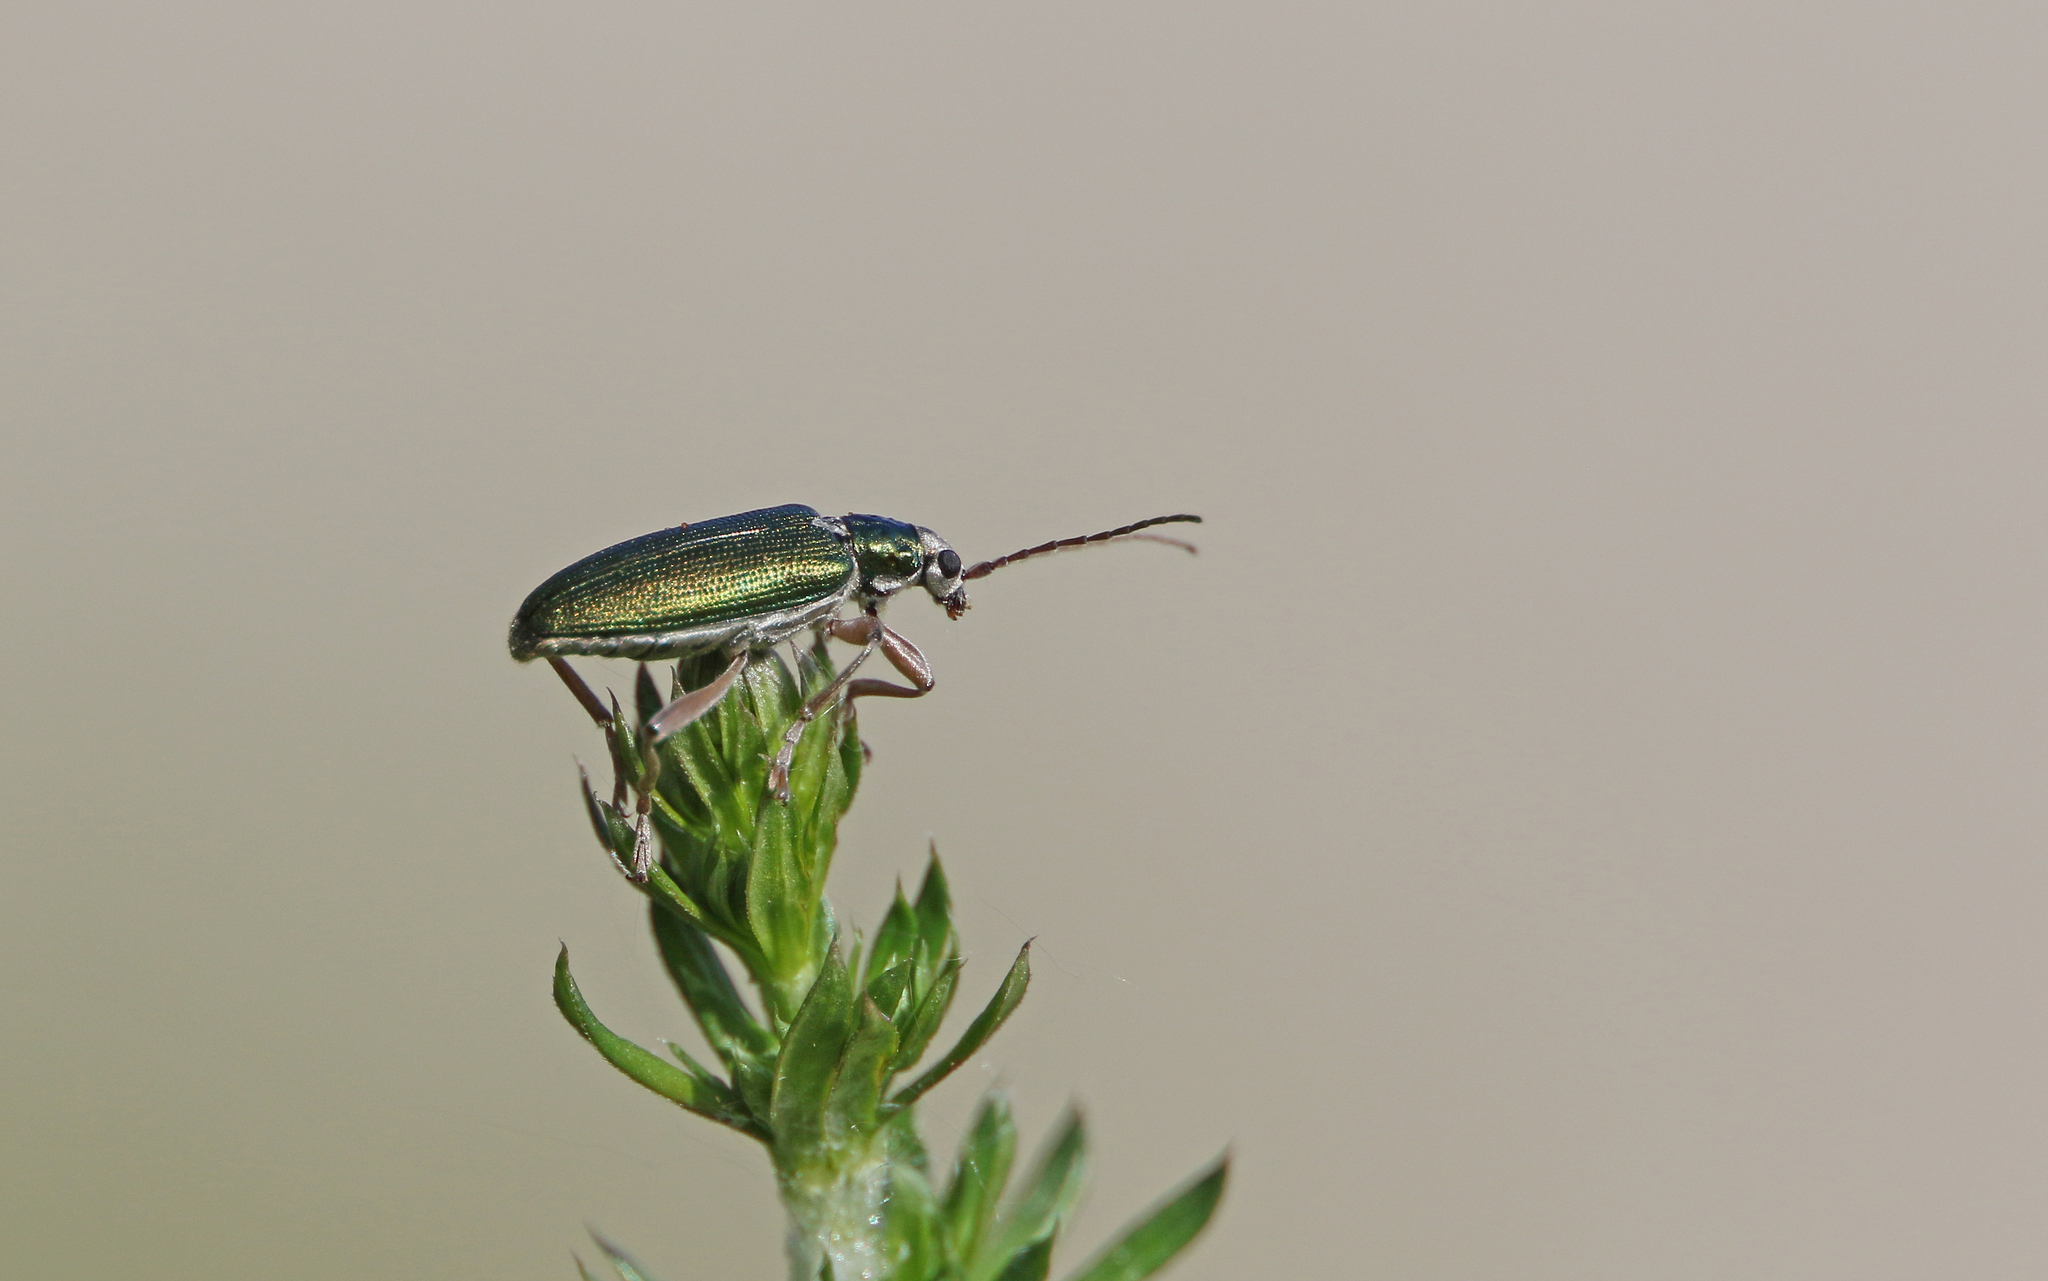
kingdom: Animalia
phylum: Arthropoda
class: Insecta
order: Coleoptera
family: Chrysomelidae
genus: Donacia
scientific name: Donacia clavipes
